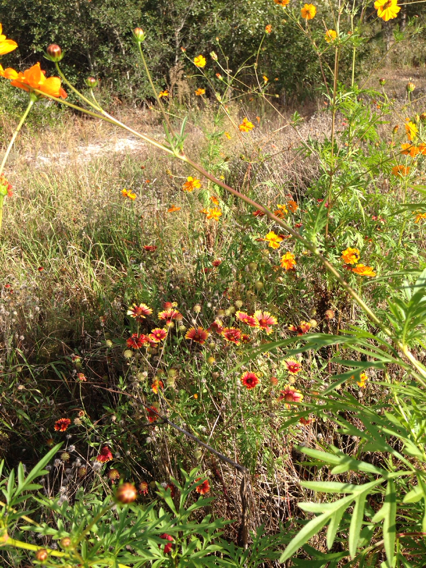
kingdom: Plantae
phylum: Tracheophyta
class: Magnoliopsida
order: Asterales
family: Asteraceae
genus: Gaillardia
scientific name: Gaillardia pulchella
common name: Firewheel
